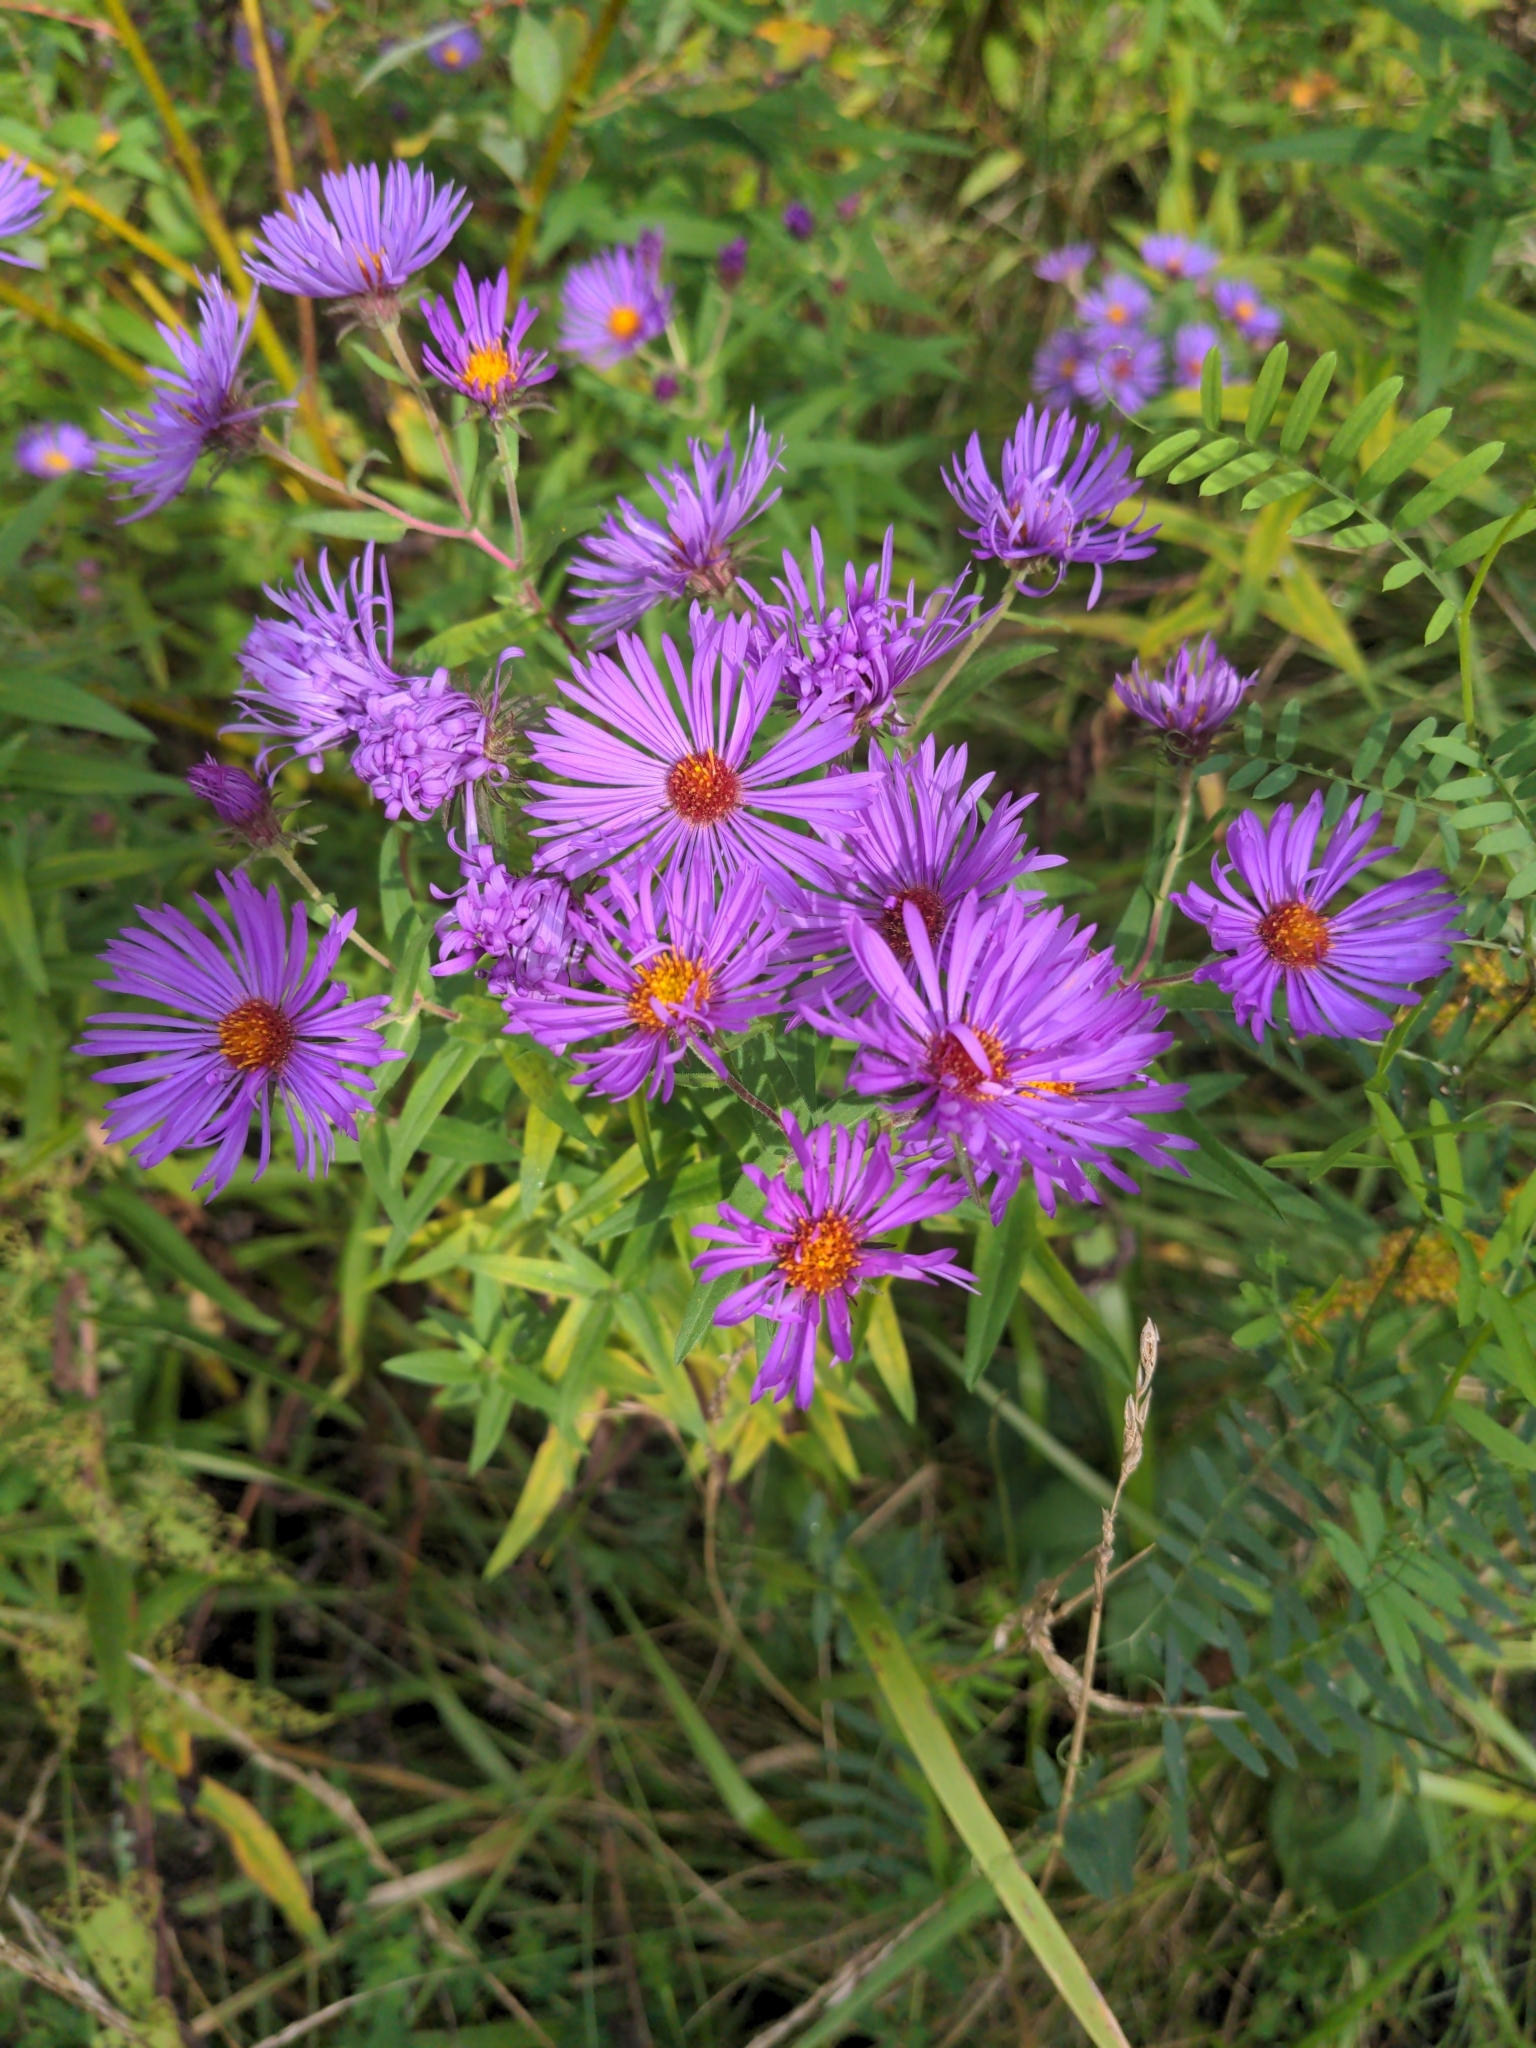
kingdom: Plantae
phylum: Tracheophyta
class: Magnoliopsida
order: Asterales
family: Asteraceae
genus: Symphyotrichum
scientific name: Symphyotrichum novae-angliae
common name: Michaelmas daisy
